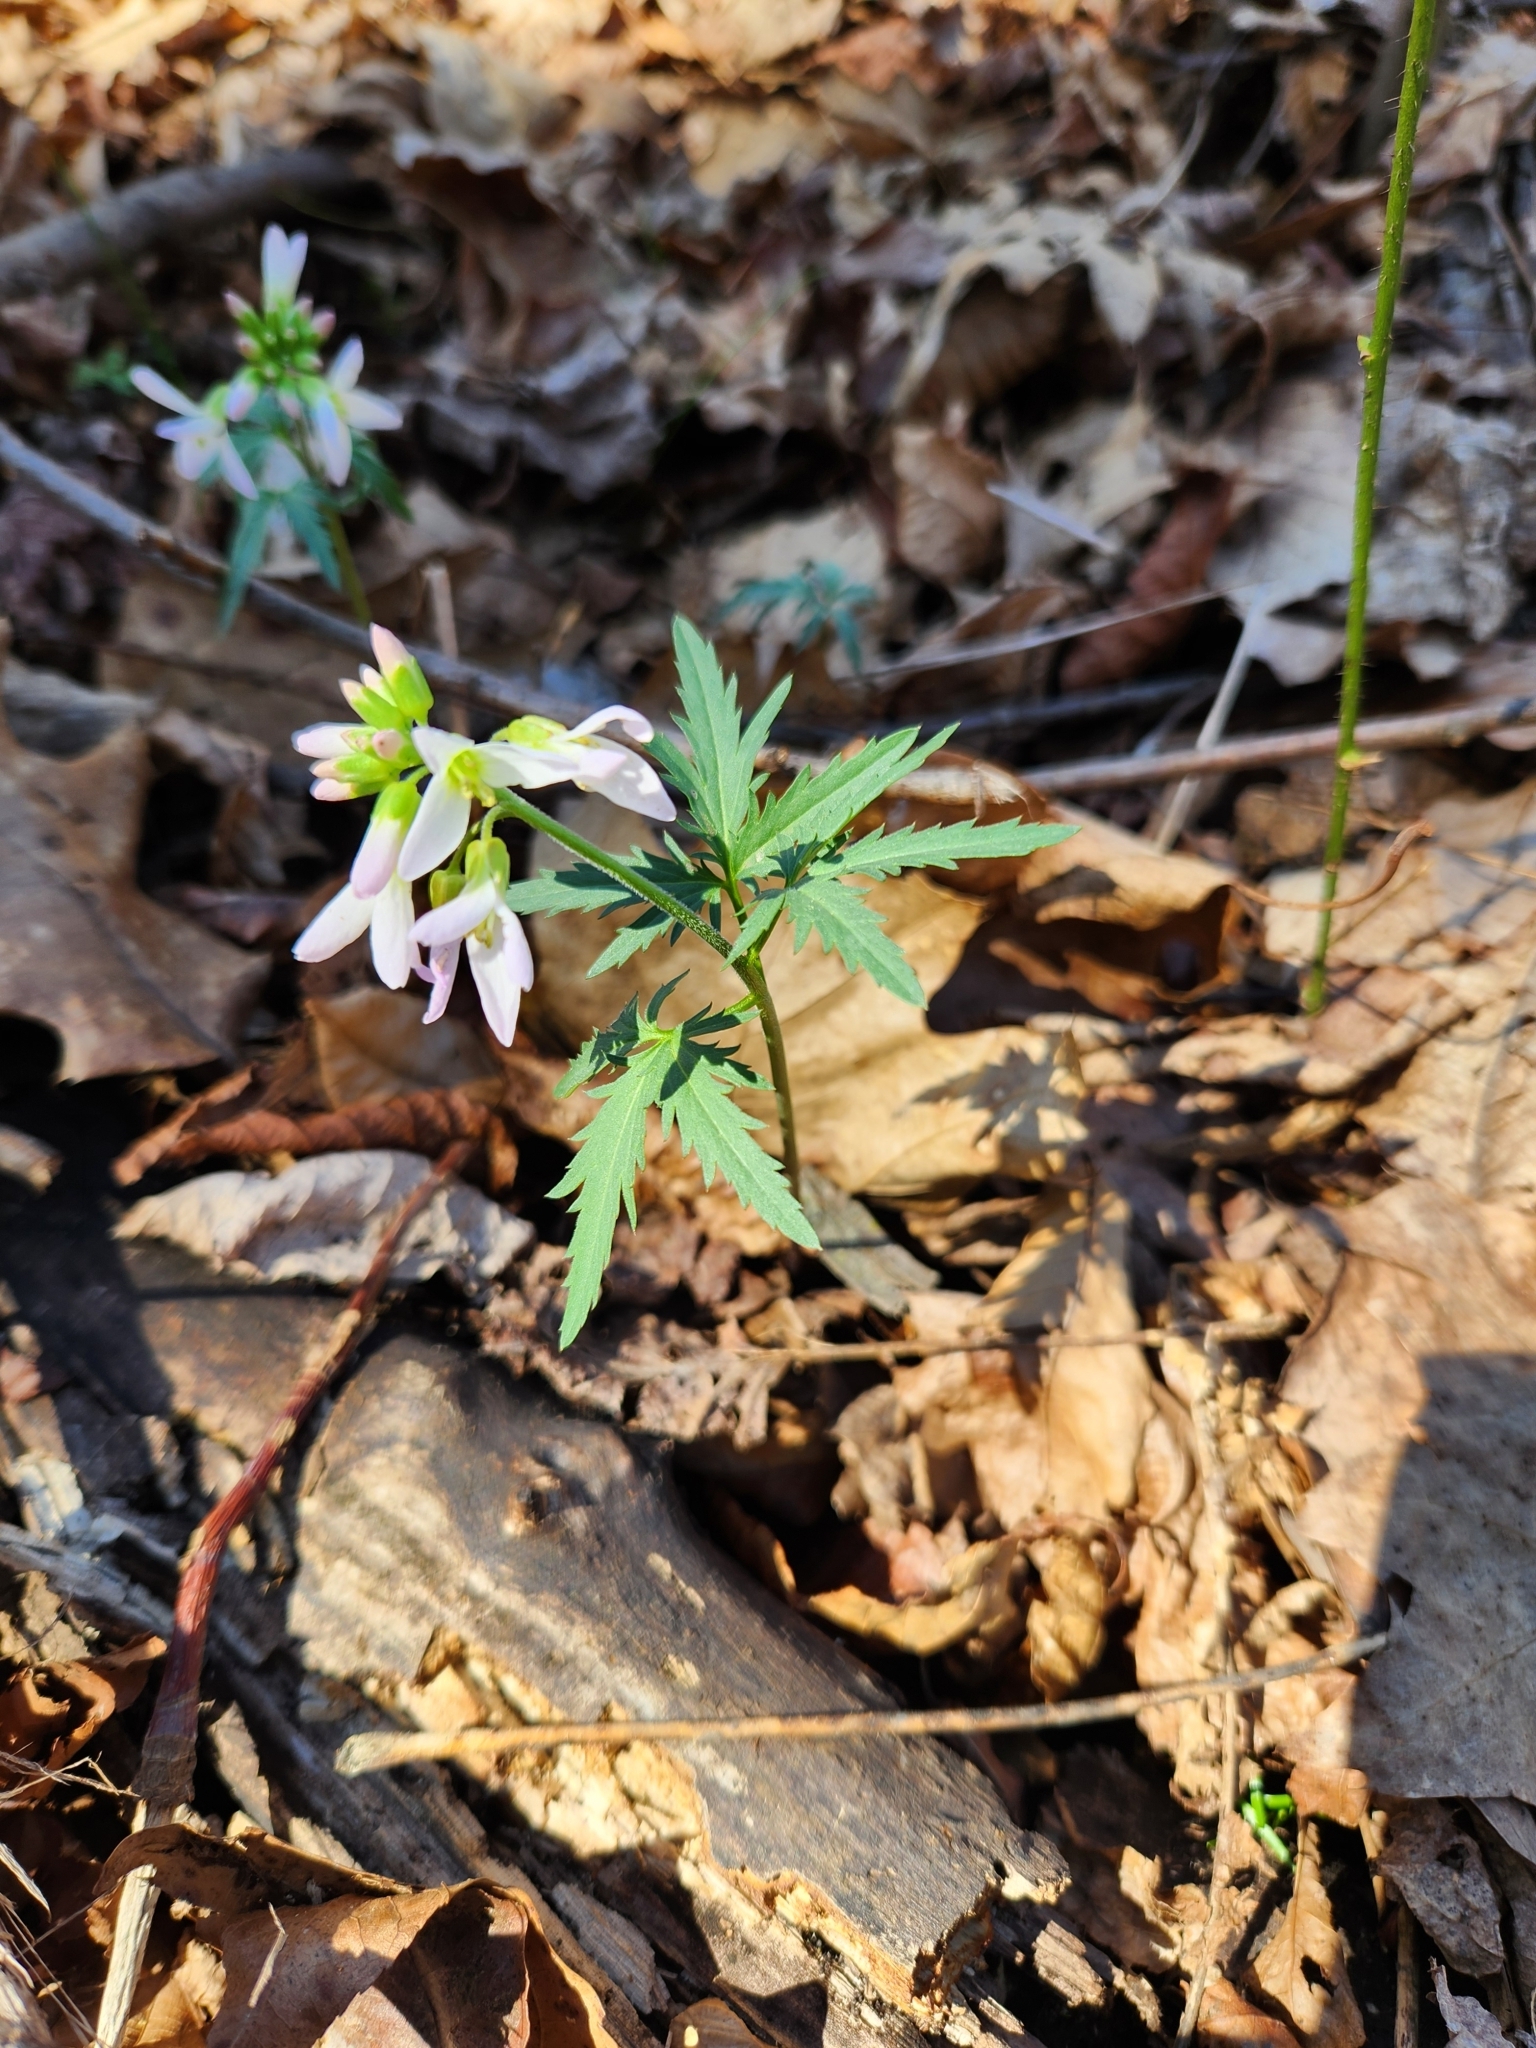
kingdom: Plantae
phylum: Tracheophyta
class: Magnoliopsida
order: Brassicales
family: Brassicaceae
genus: Cardamine
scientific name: Cardamine concatenata
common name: Cut-leaf toothcup
